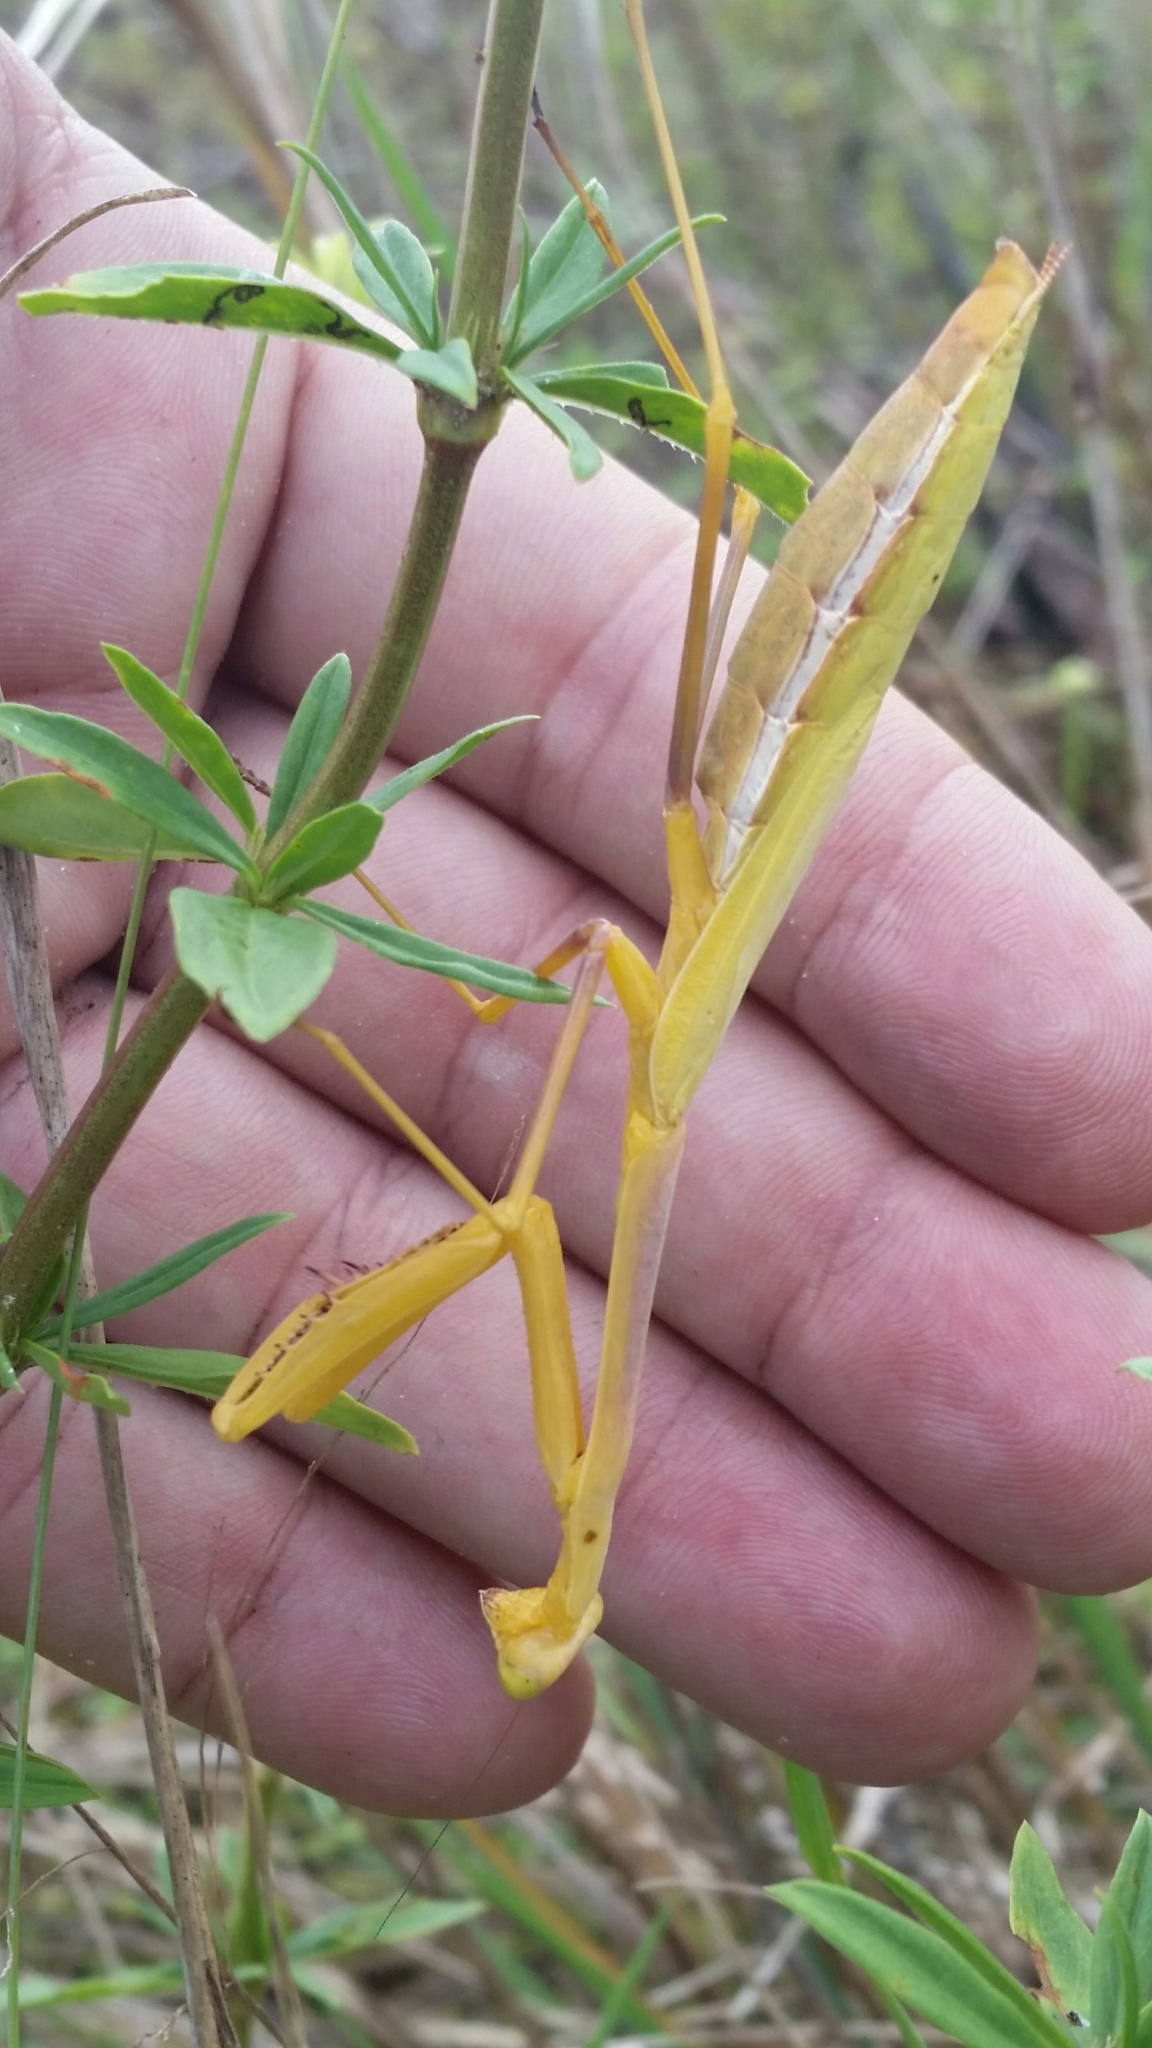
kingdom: Animalia
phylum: Arthropoda
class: Insecta
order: Mantodea
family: Mantidae
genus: Stagmomantis
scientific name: Stagmomantis floridensis
